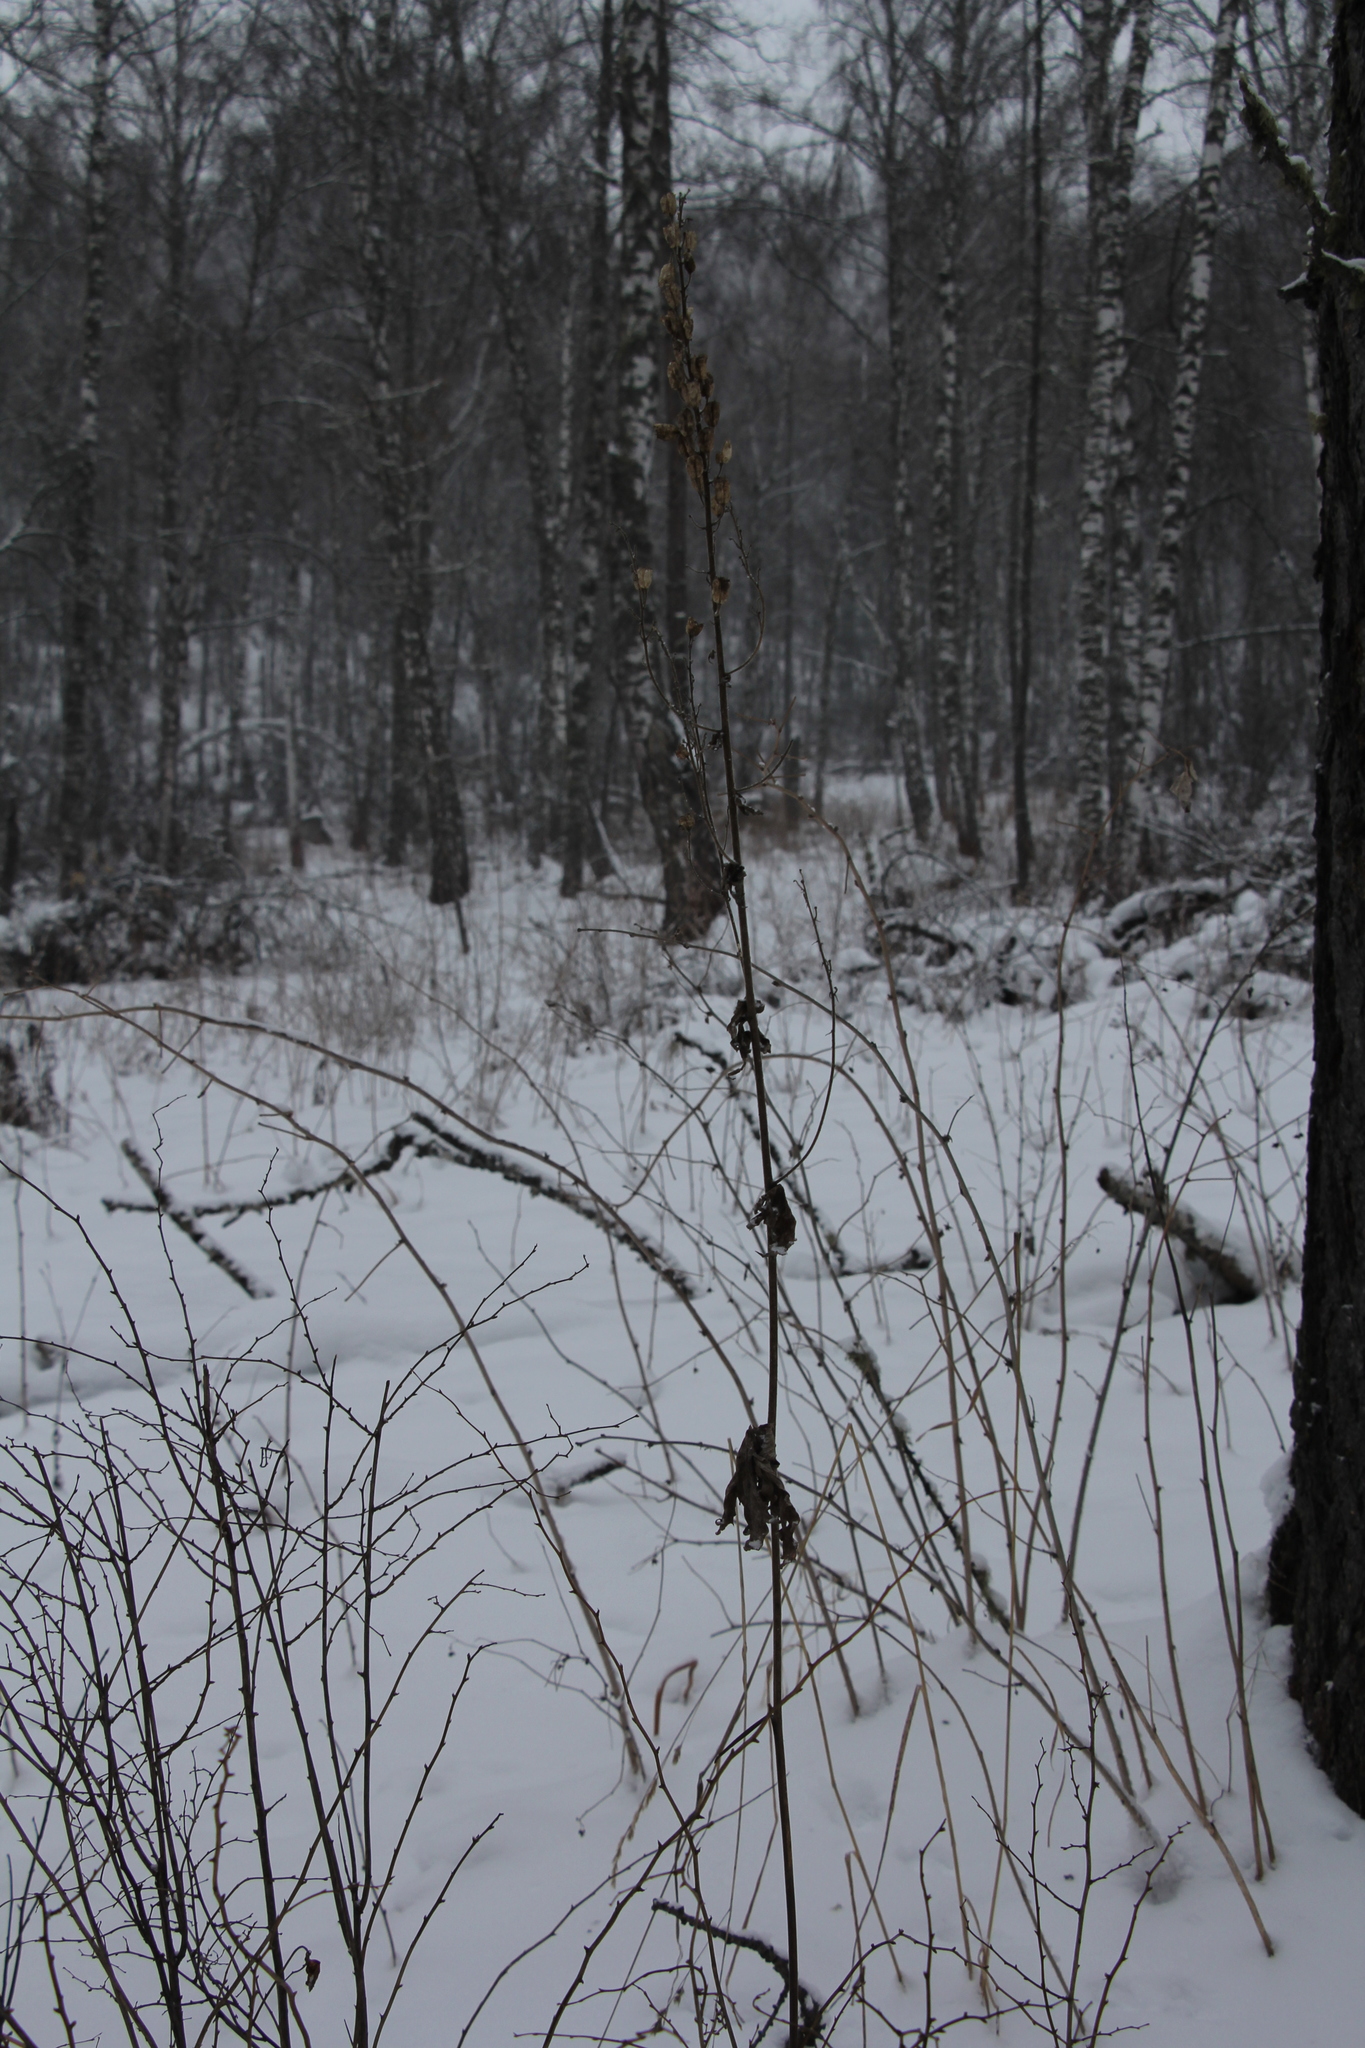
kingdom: Plantae
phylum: Tracheophyta
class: Magnoliopsida
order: Ranunculales
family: Ranunculaceae
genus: Aconitum
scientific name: Aconitum septentrionale
